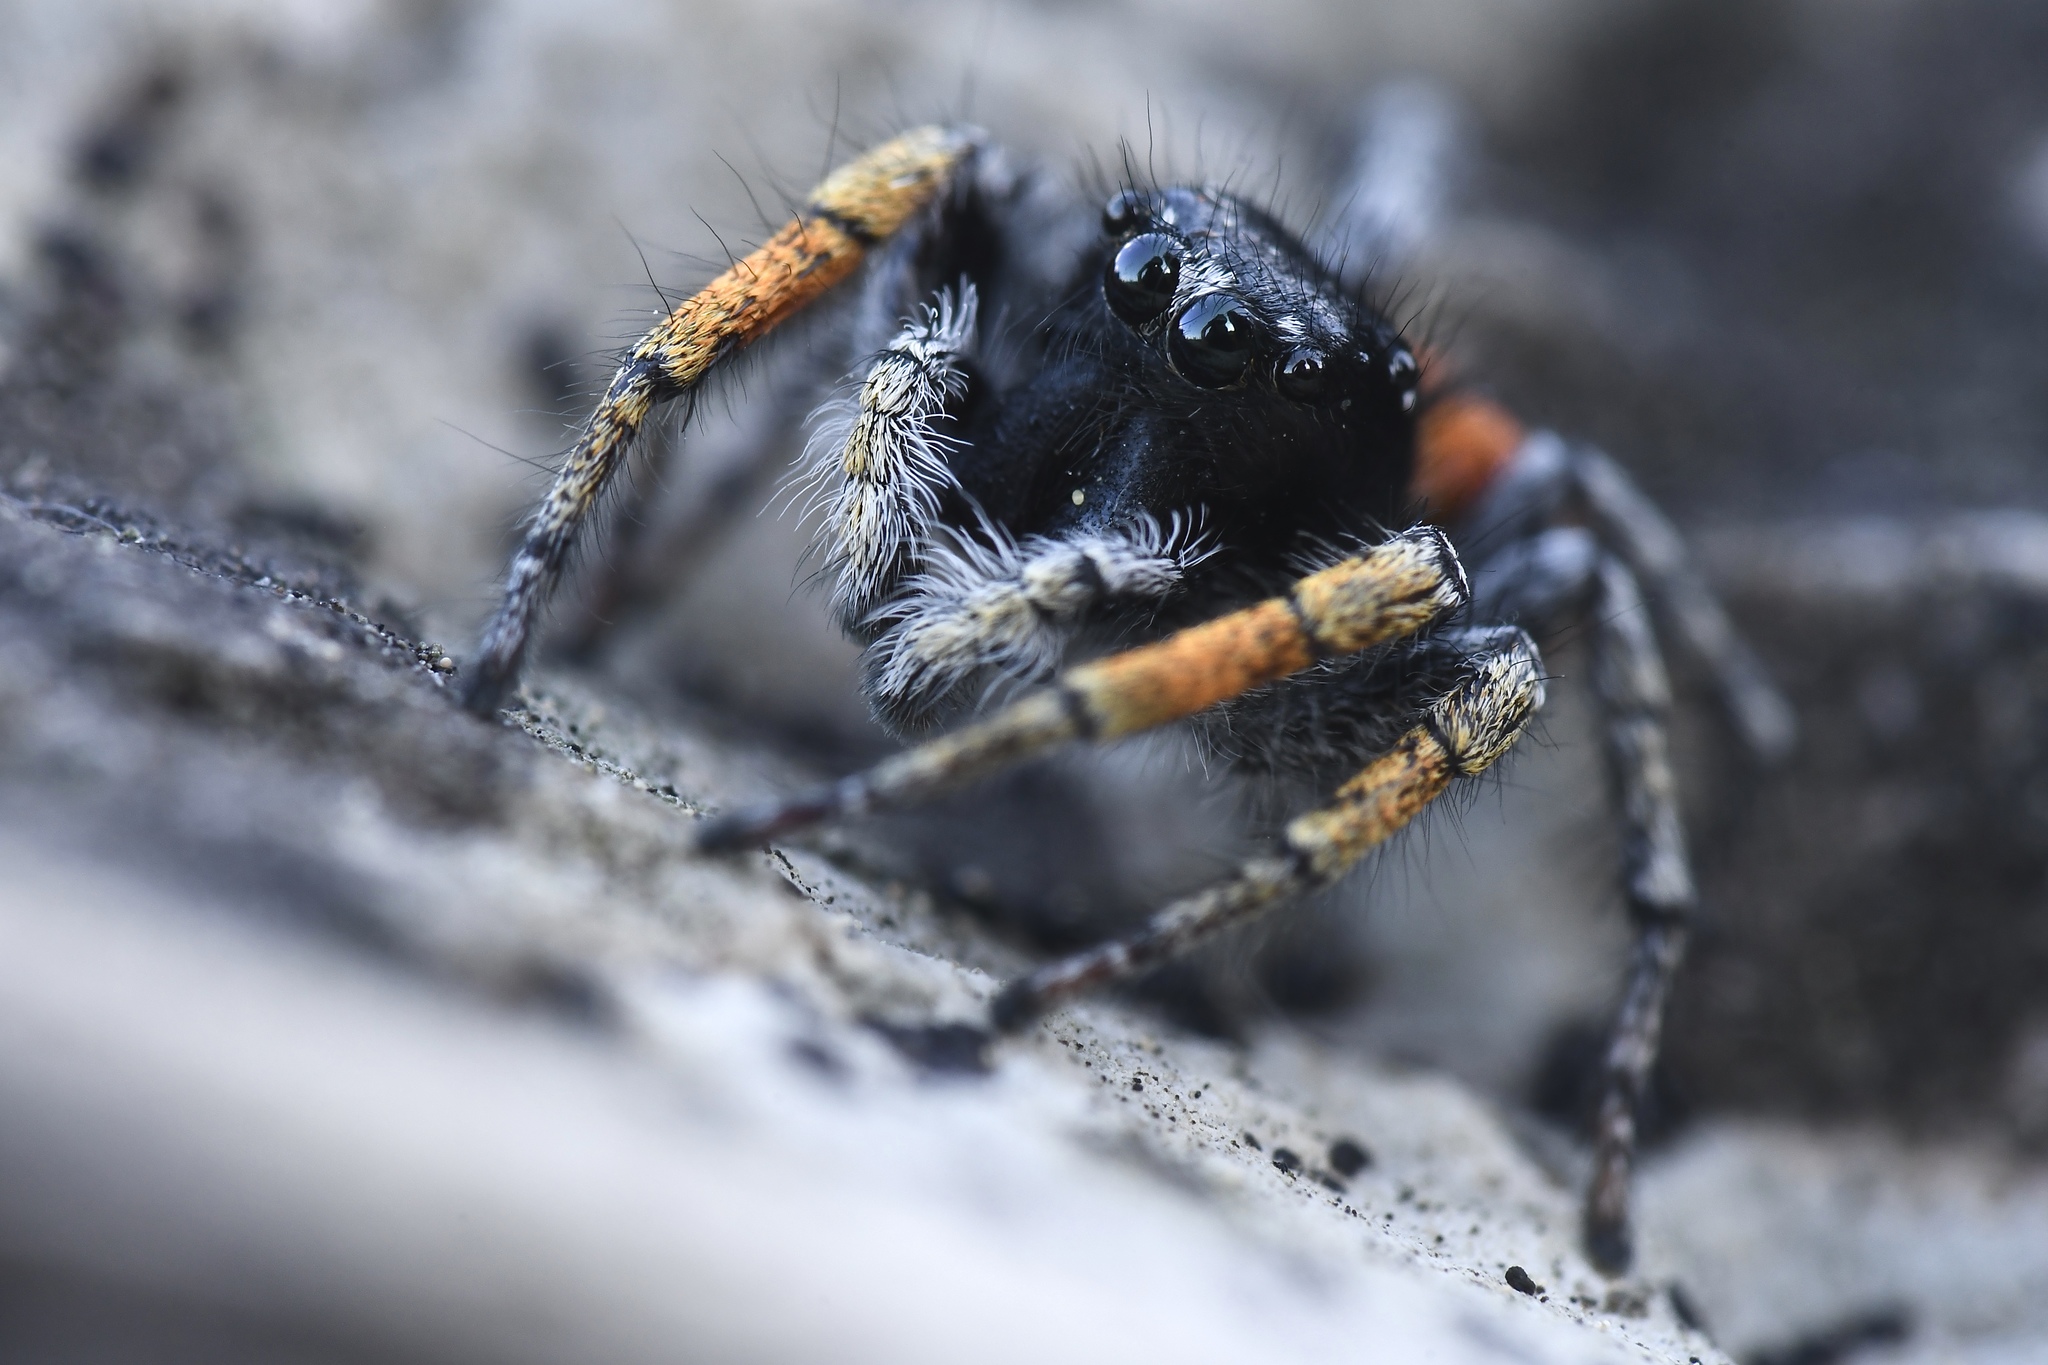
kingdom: Animalia
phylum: Arthropoda
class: Arachnida
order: Araneae
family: Salticidae
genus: Philaeus
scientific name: Philaeus chrysops
